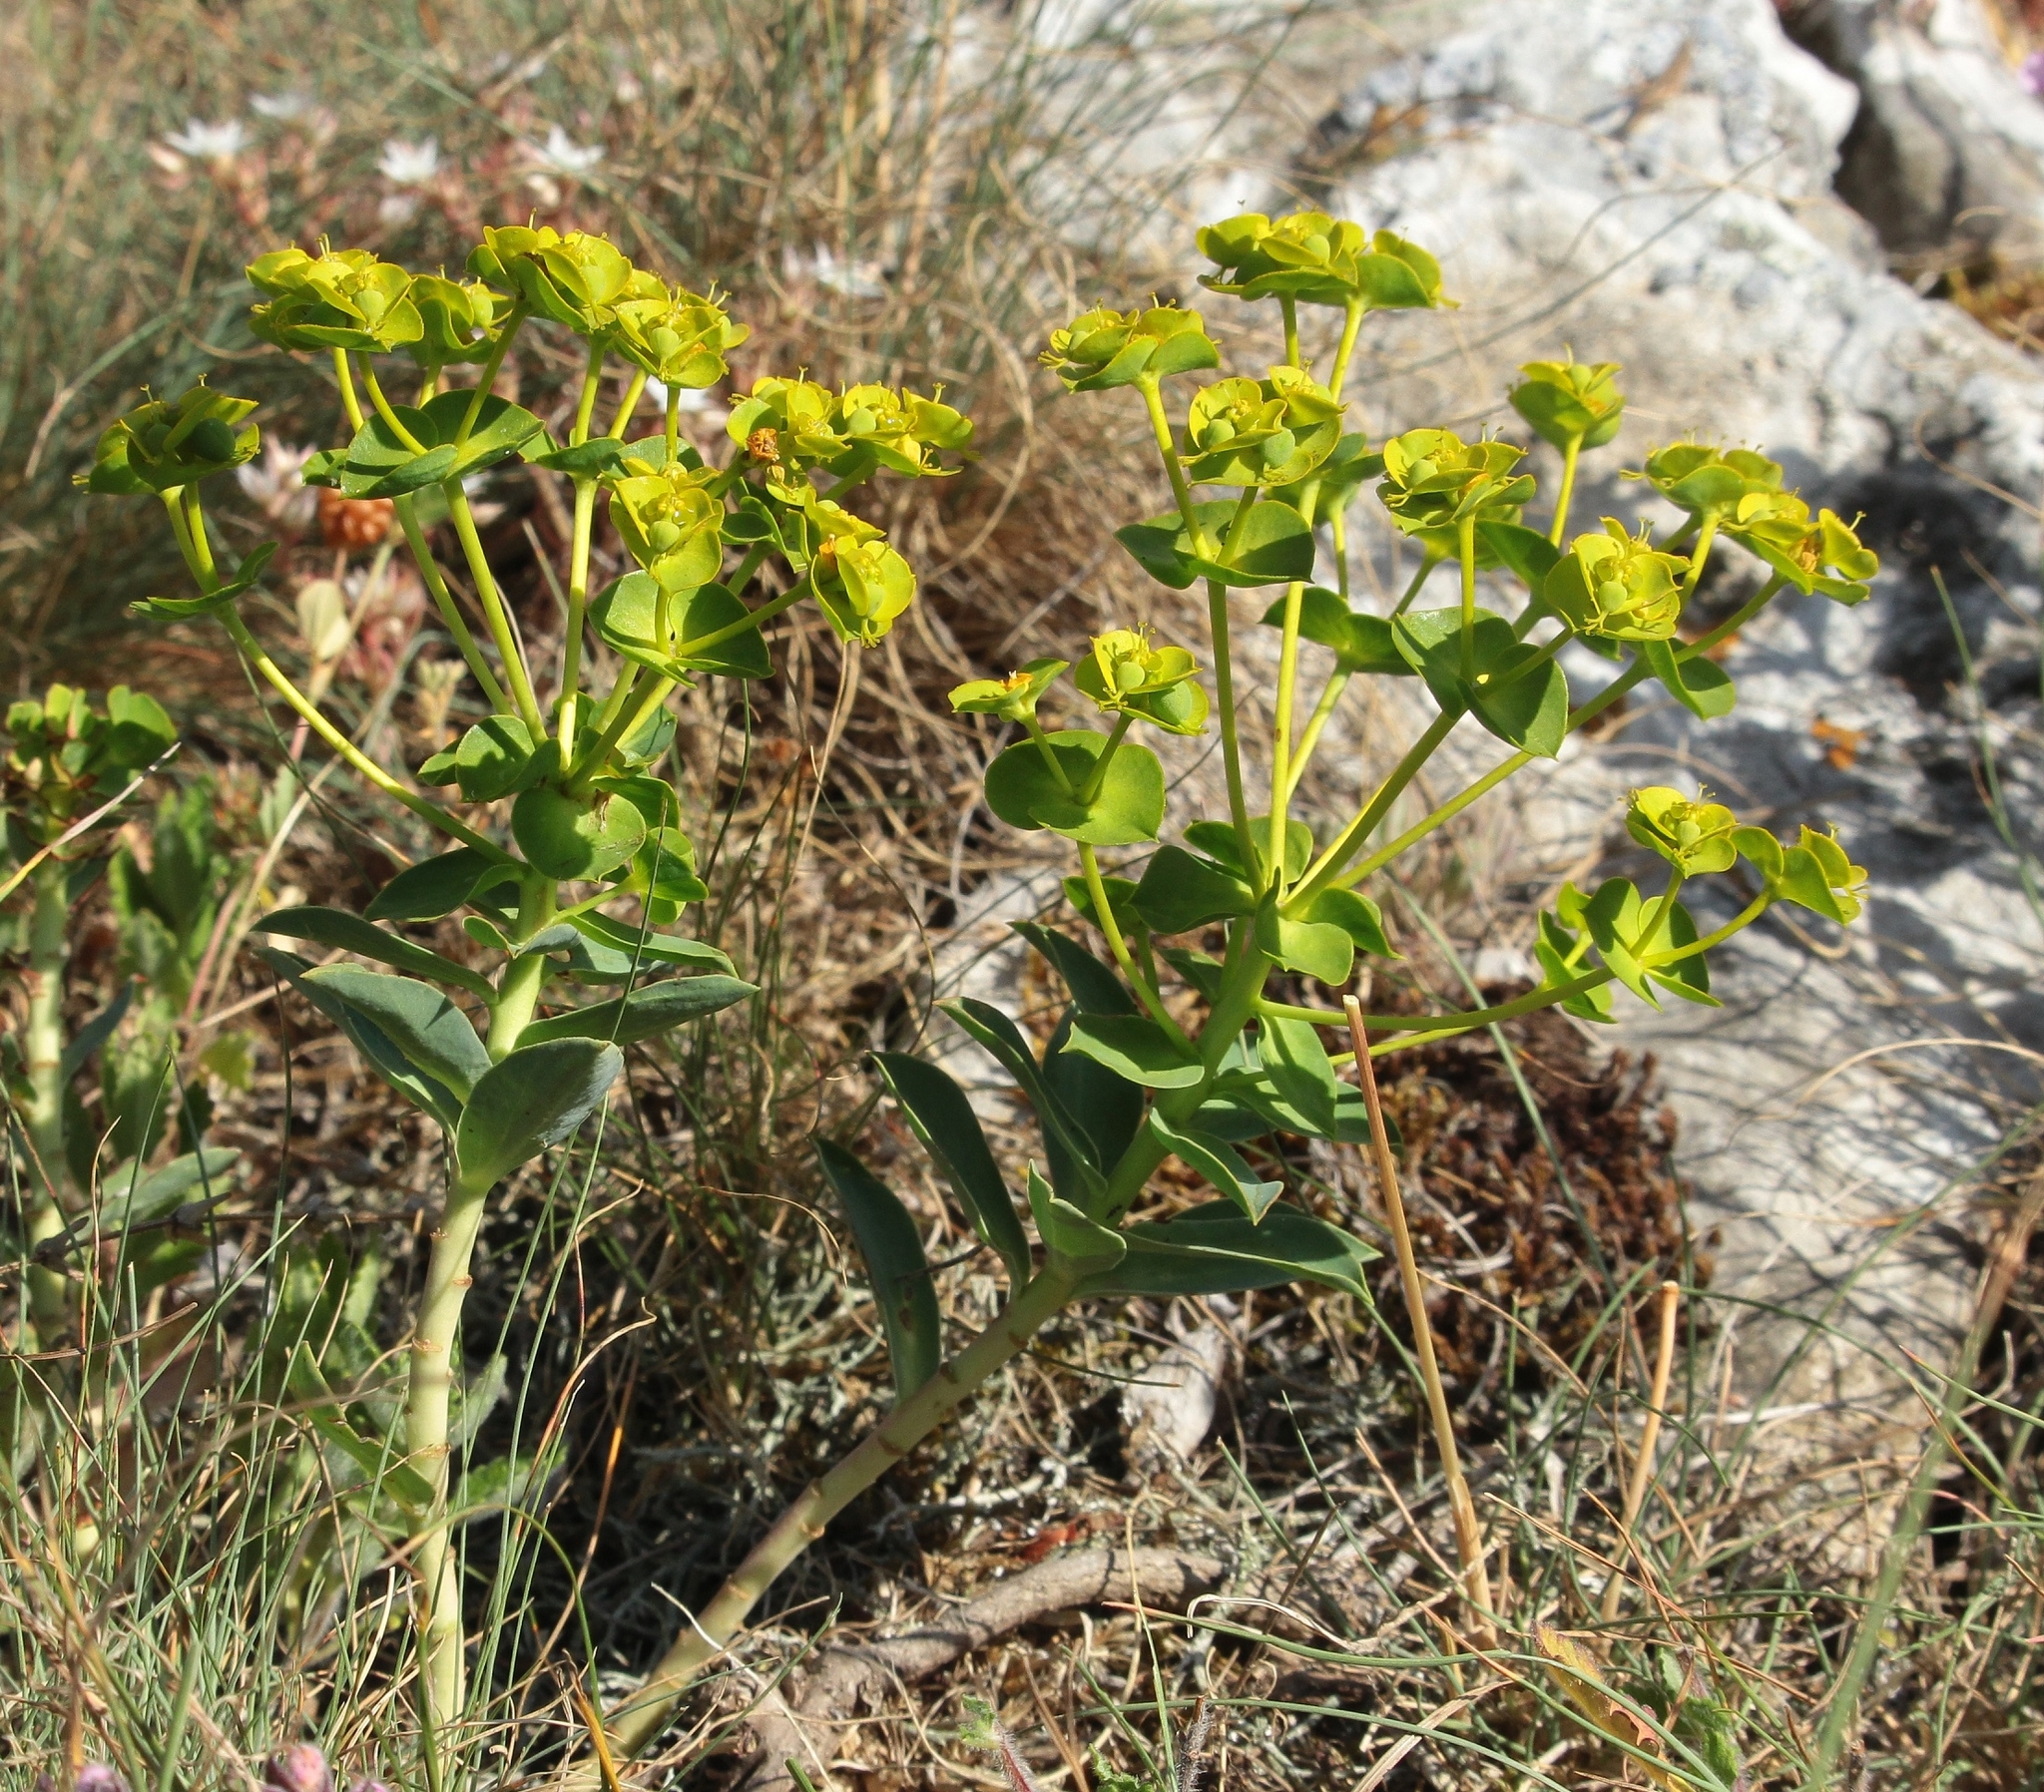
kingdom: Plantae
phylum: Tracheophyta
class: Magnoliopsida
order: Malpighiales
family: Euphorbiaceae
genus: Euphorbia
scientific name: Euphorbia agraria
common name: Urban spurge
